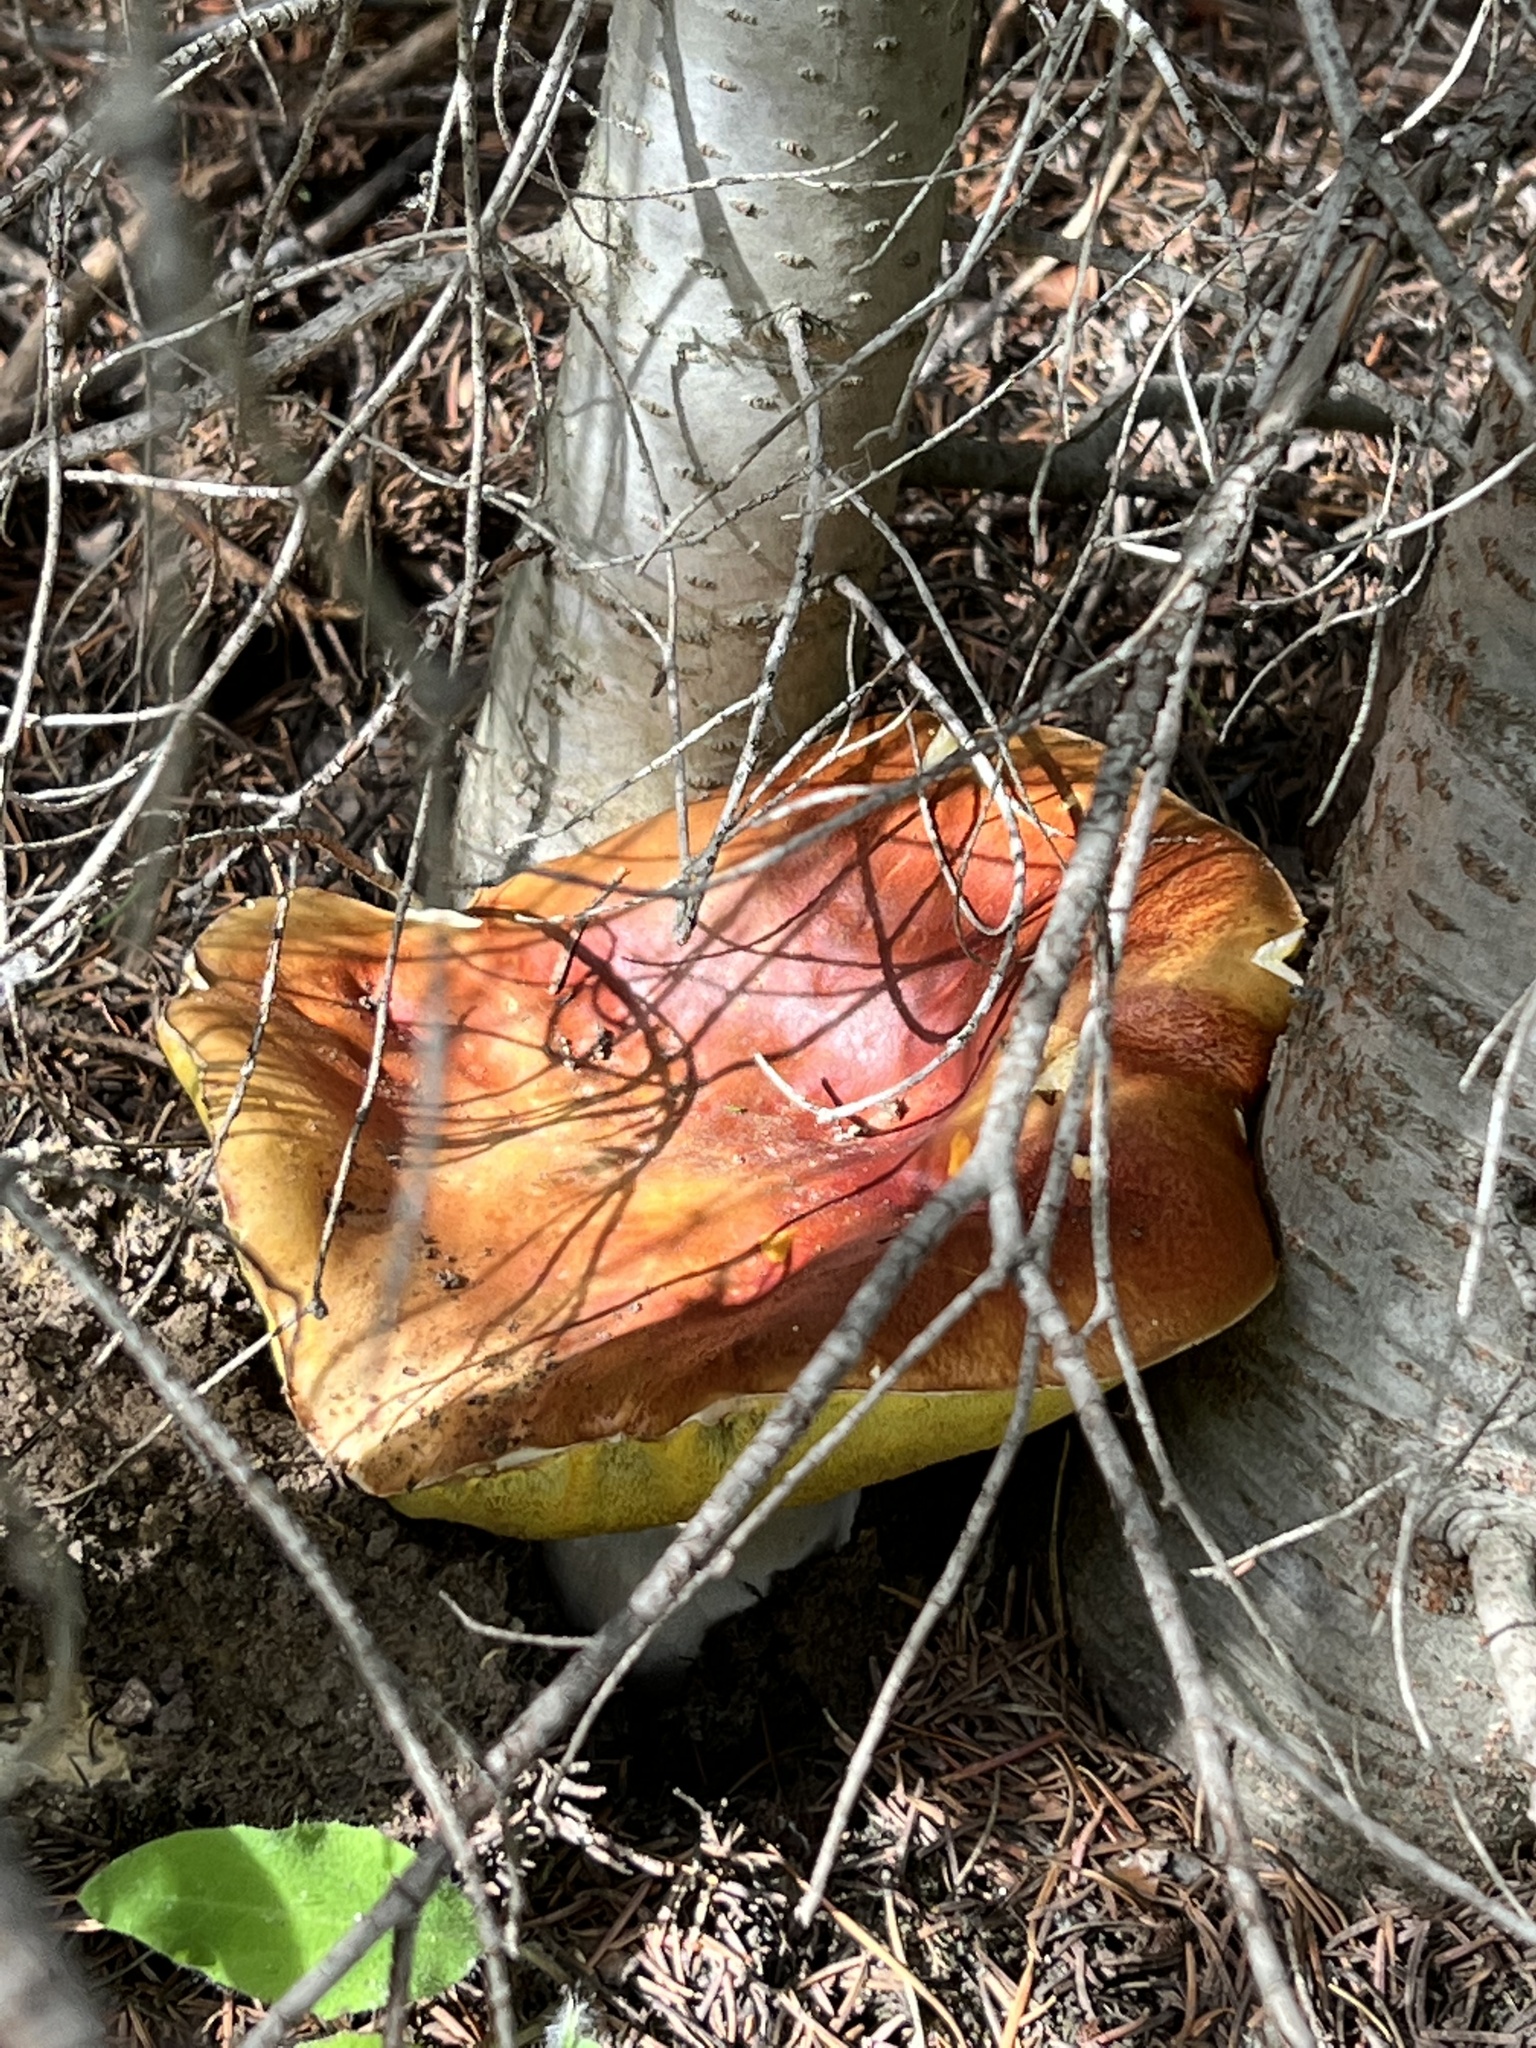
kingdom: Fungi
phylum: Basidiomycota
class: Agaricomycetes
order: Boletales
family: Boletaceae
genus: Boletus
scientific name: Boletus rubriceps
